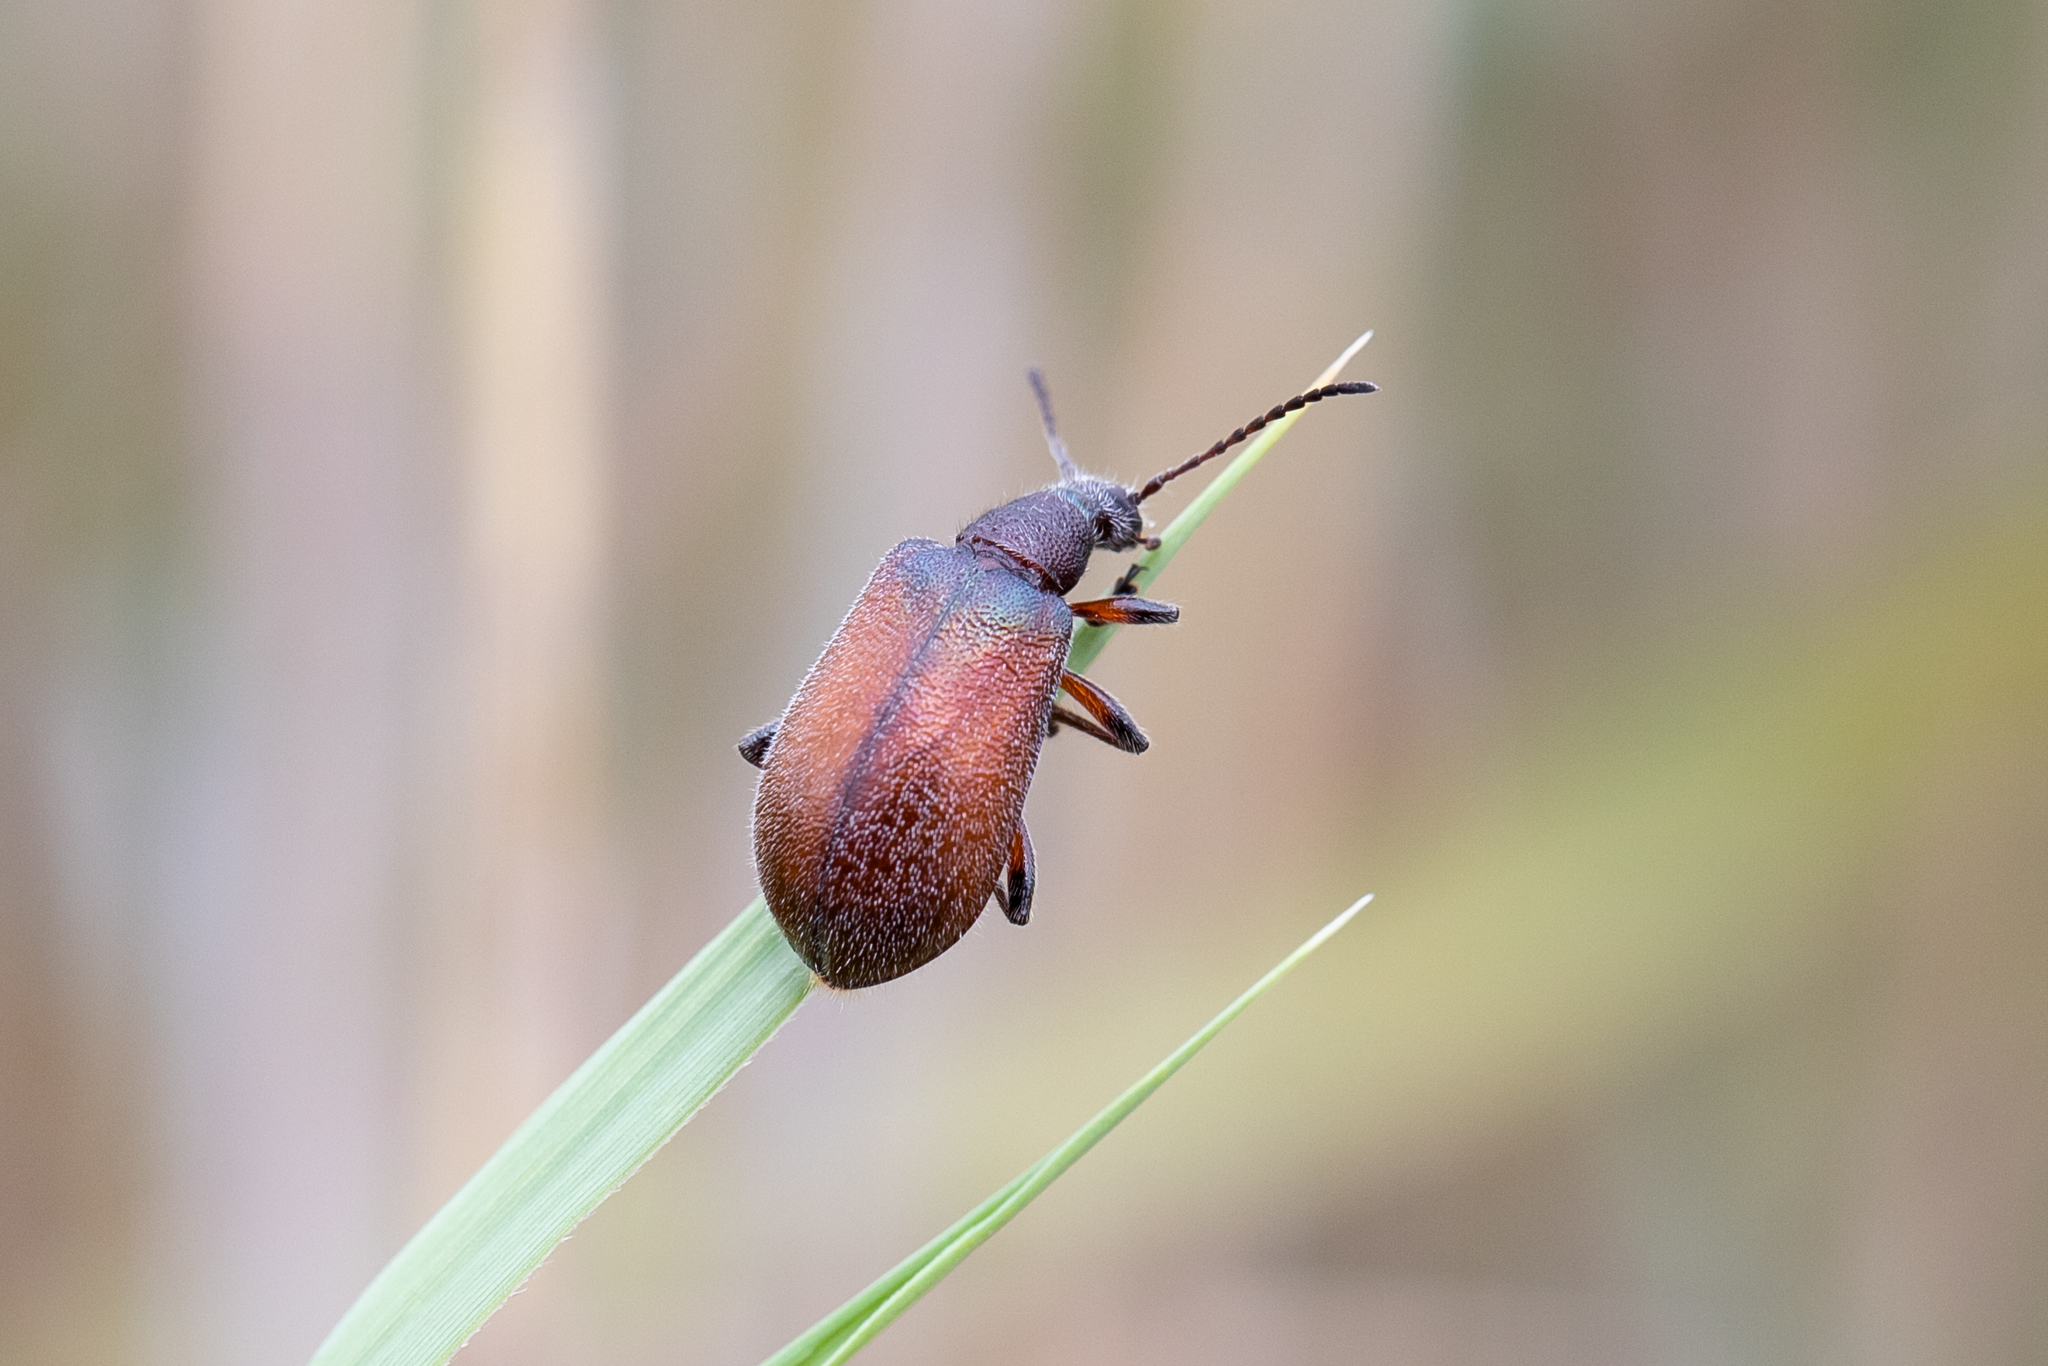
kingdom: Animalia
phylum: Arthropoda
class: Insecta
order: Coleoptera
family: Tenebrionidae
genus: Ecnolagria
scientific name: Ecnolagria
